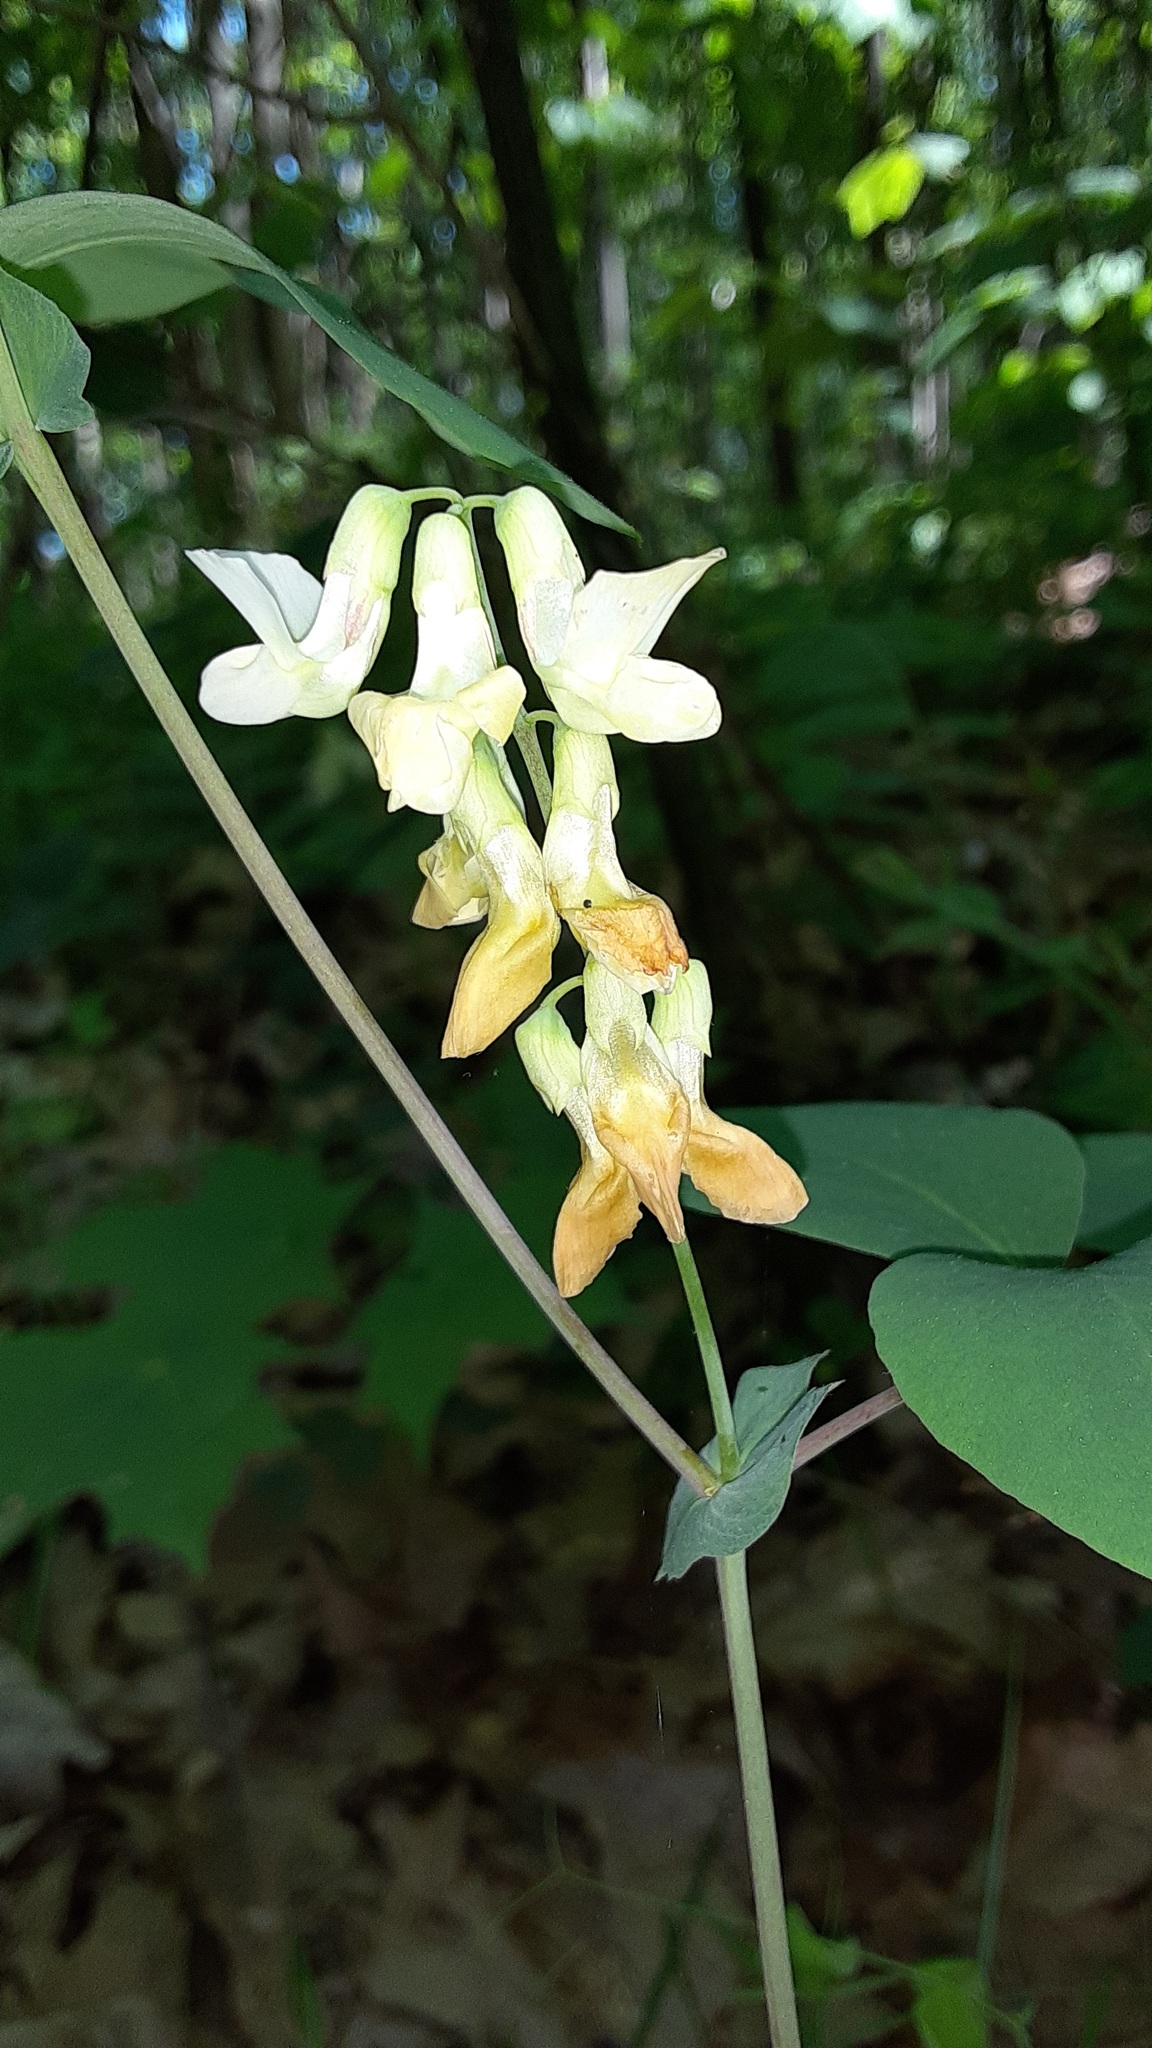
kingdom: Plantae
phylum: Tracheophyta
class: Magnoliopsida
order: Fabales
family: Fabaceae
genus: Lathyrus
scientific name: Lathyrus ochroleucus
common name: Pale vetchling
